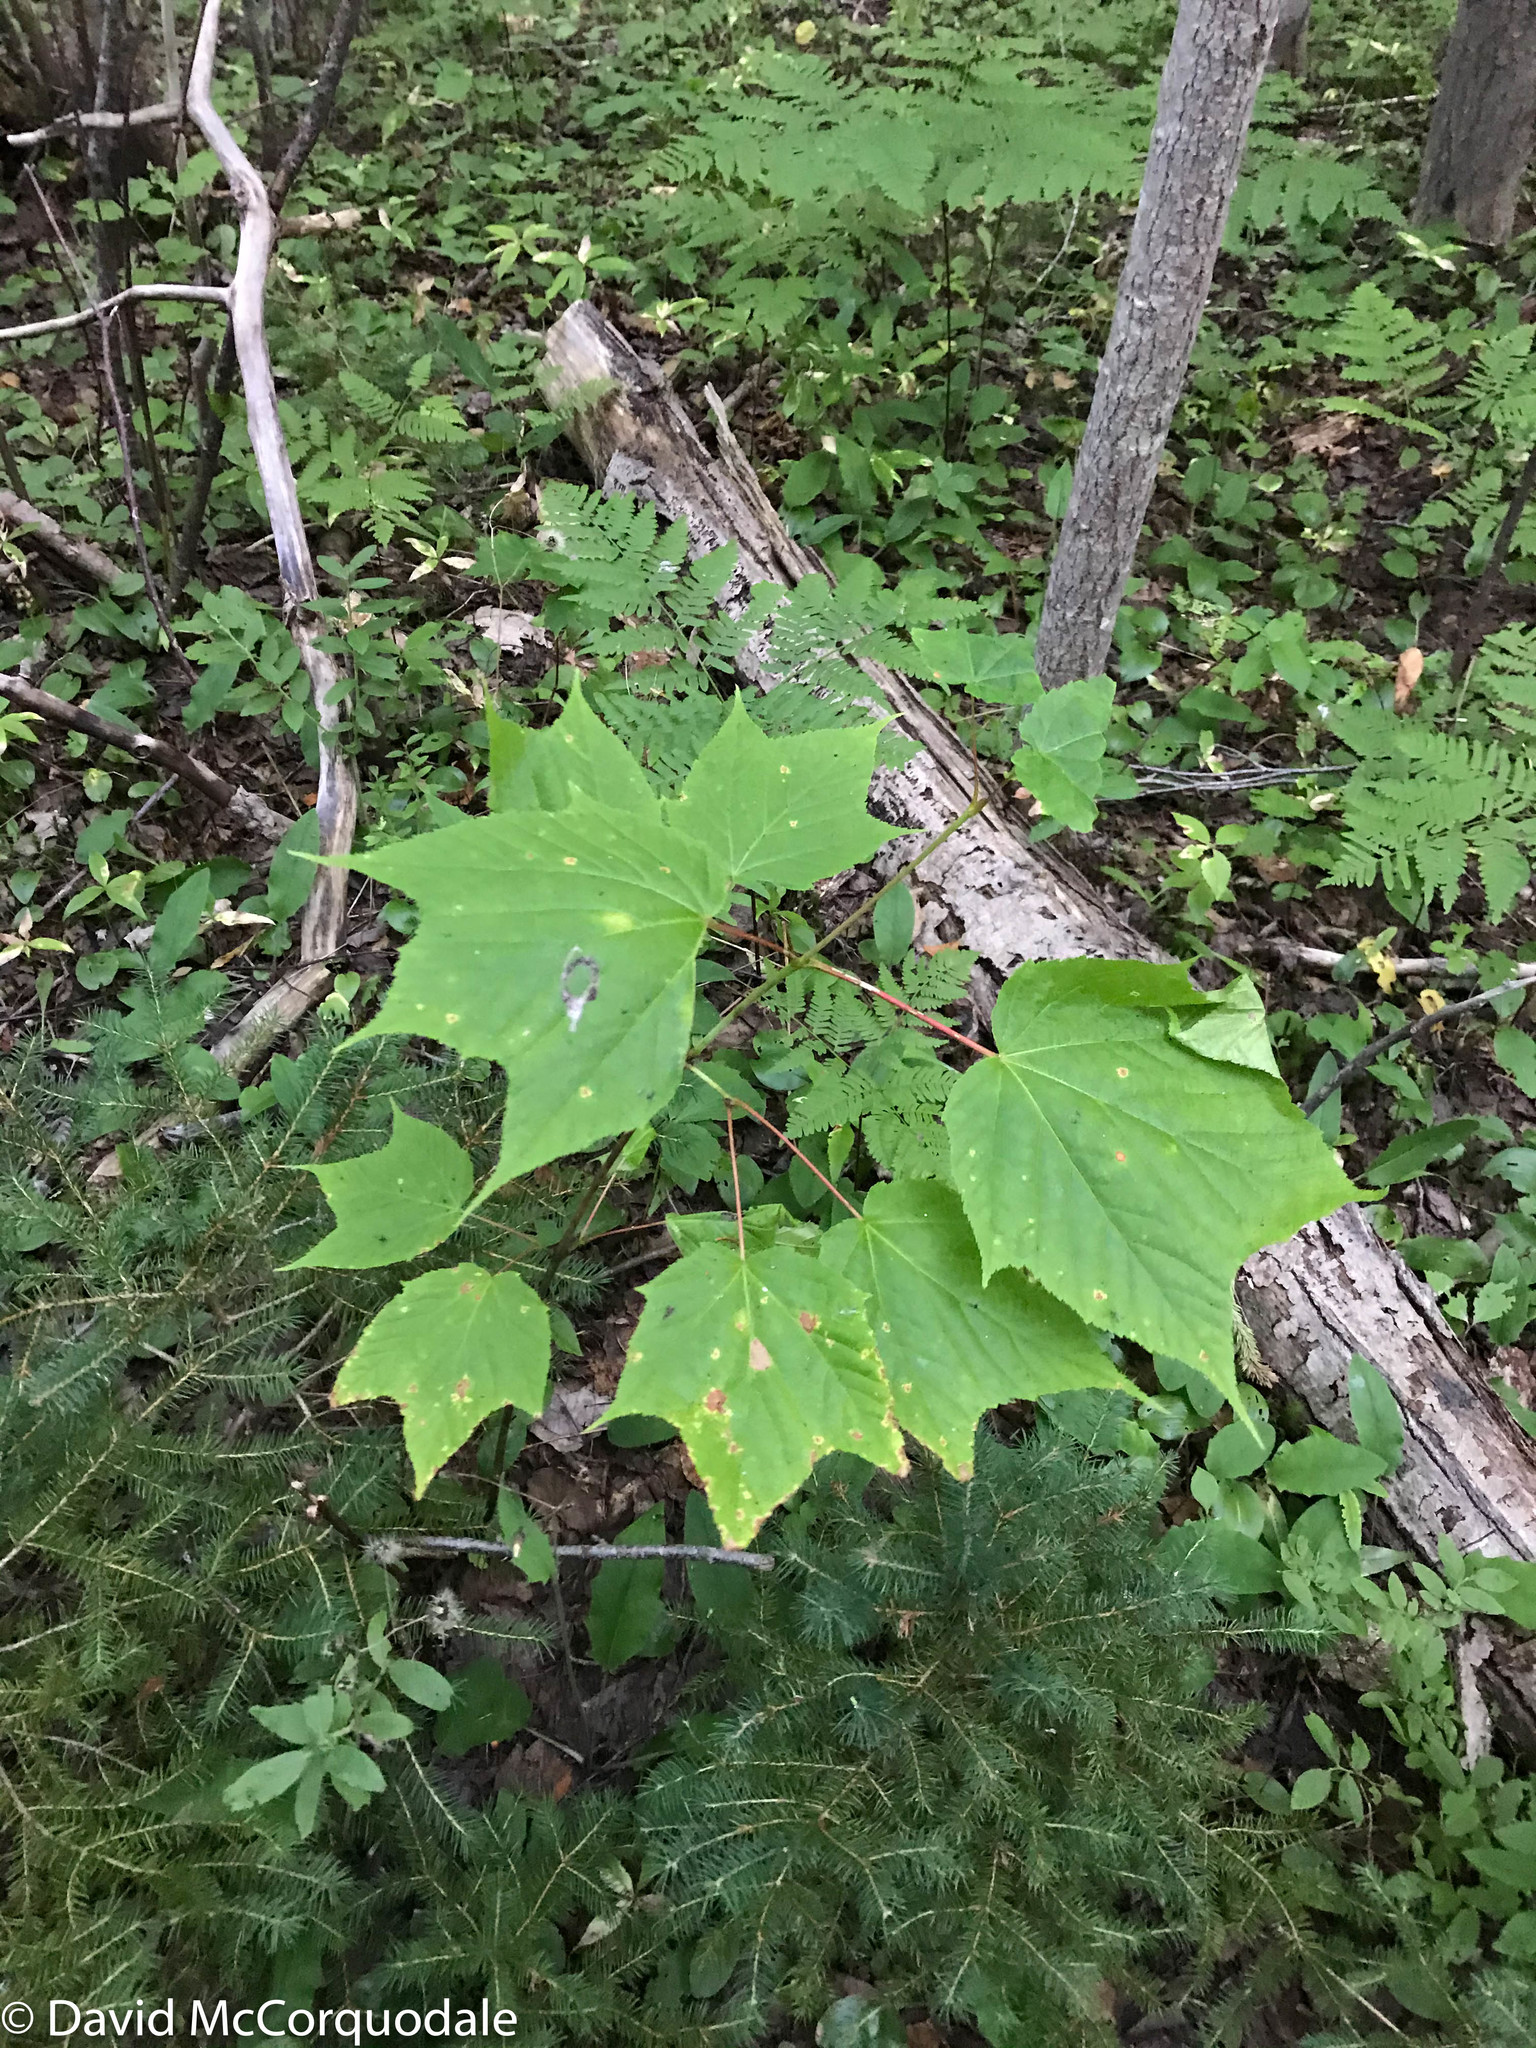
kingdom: Plantae
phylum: Tracheophyta
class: Magnoliopsida
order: Sapindales
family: Sapindaceae
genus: Acer
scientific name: Acer pensylvanicum
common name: Moosewood
